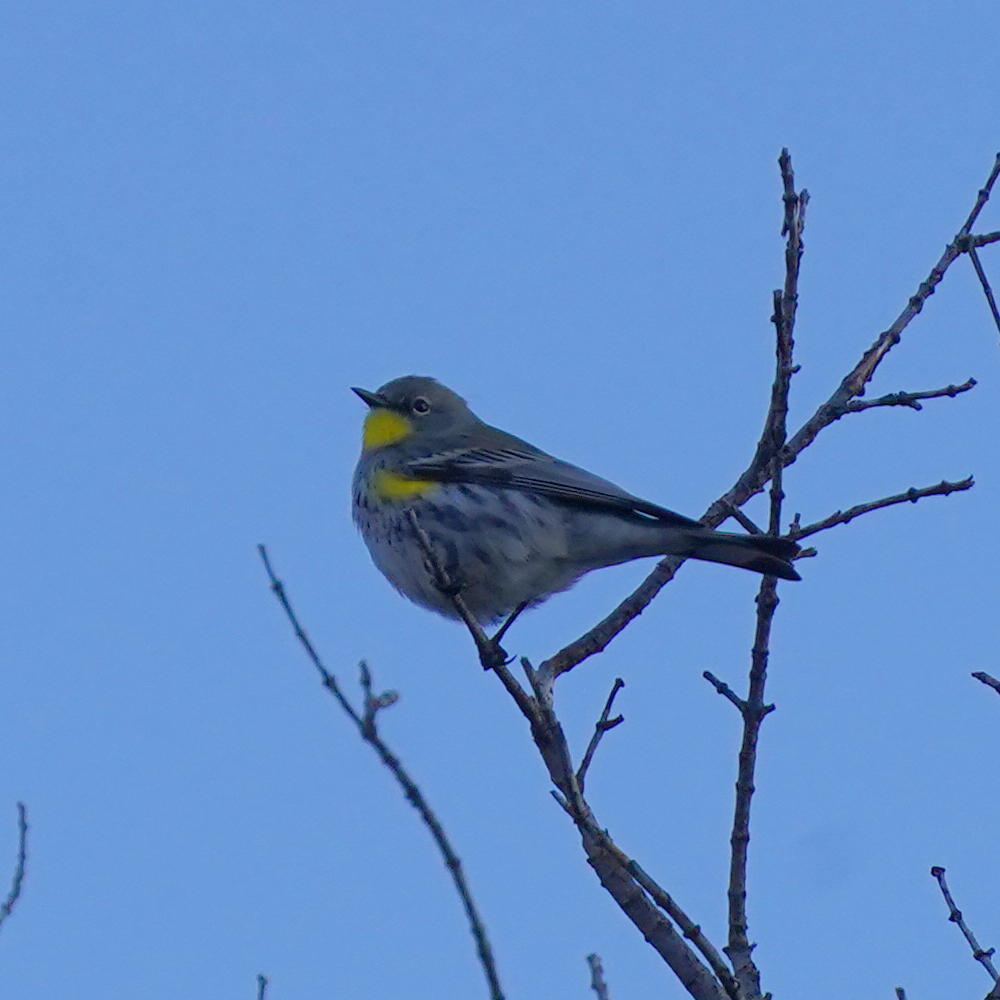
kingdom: Animalia
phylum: Chordata
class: Aves
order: Passeriformes
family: Parulidae
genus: Setophaga
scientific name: Setophaga auduboni
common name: Audubon's warbler
